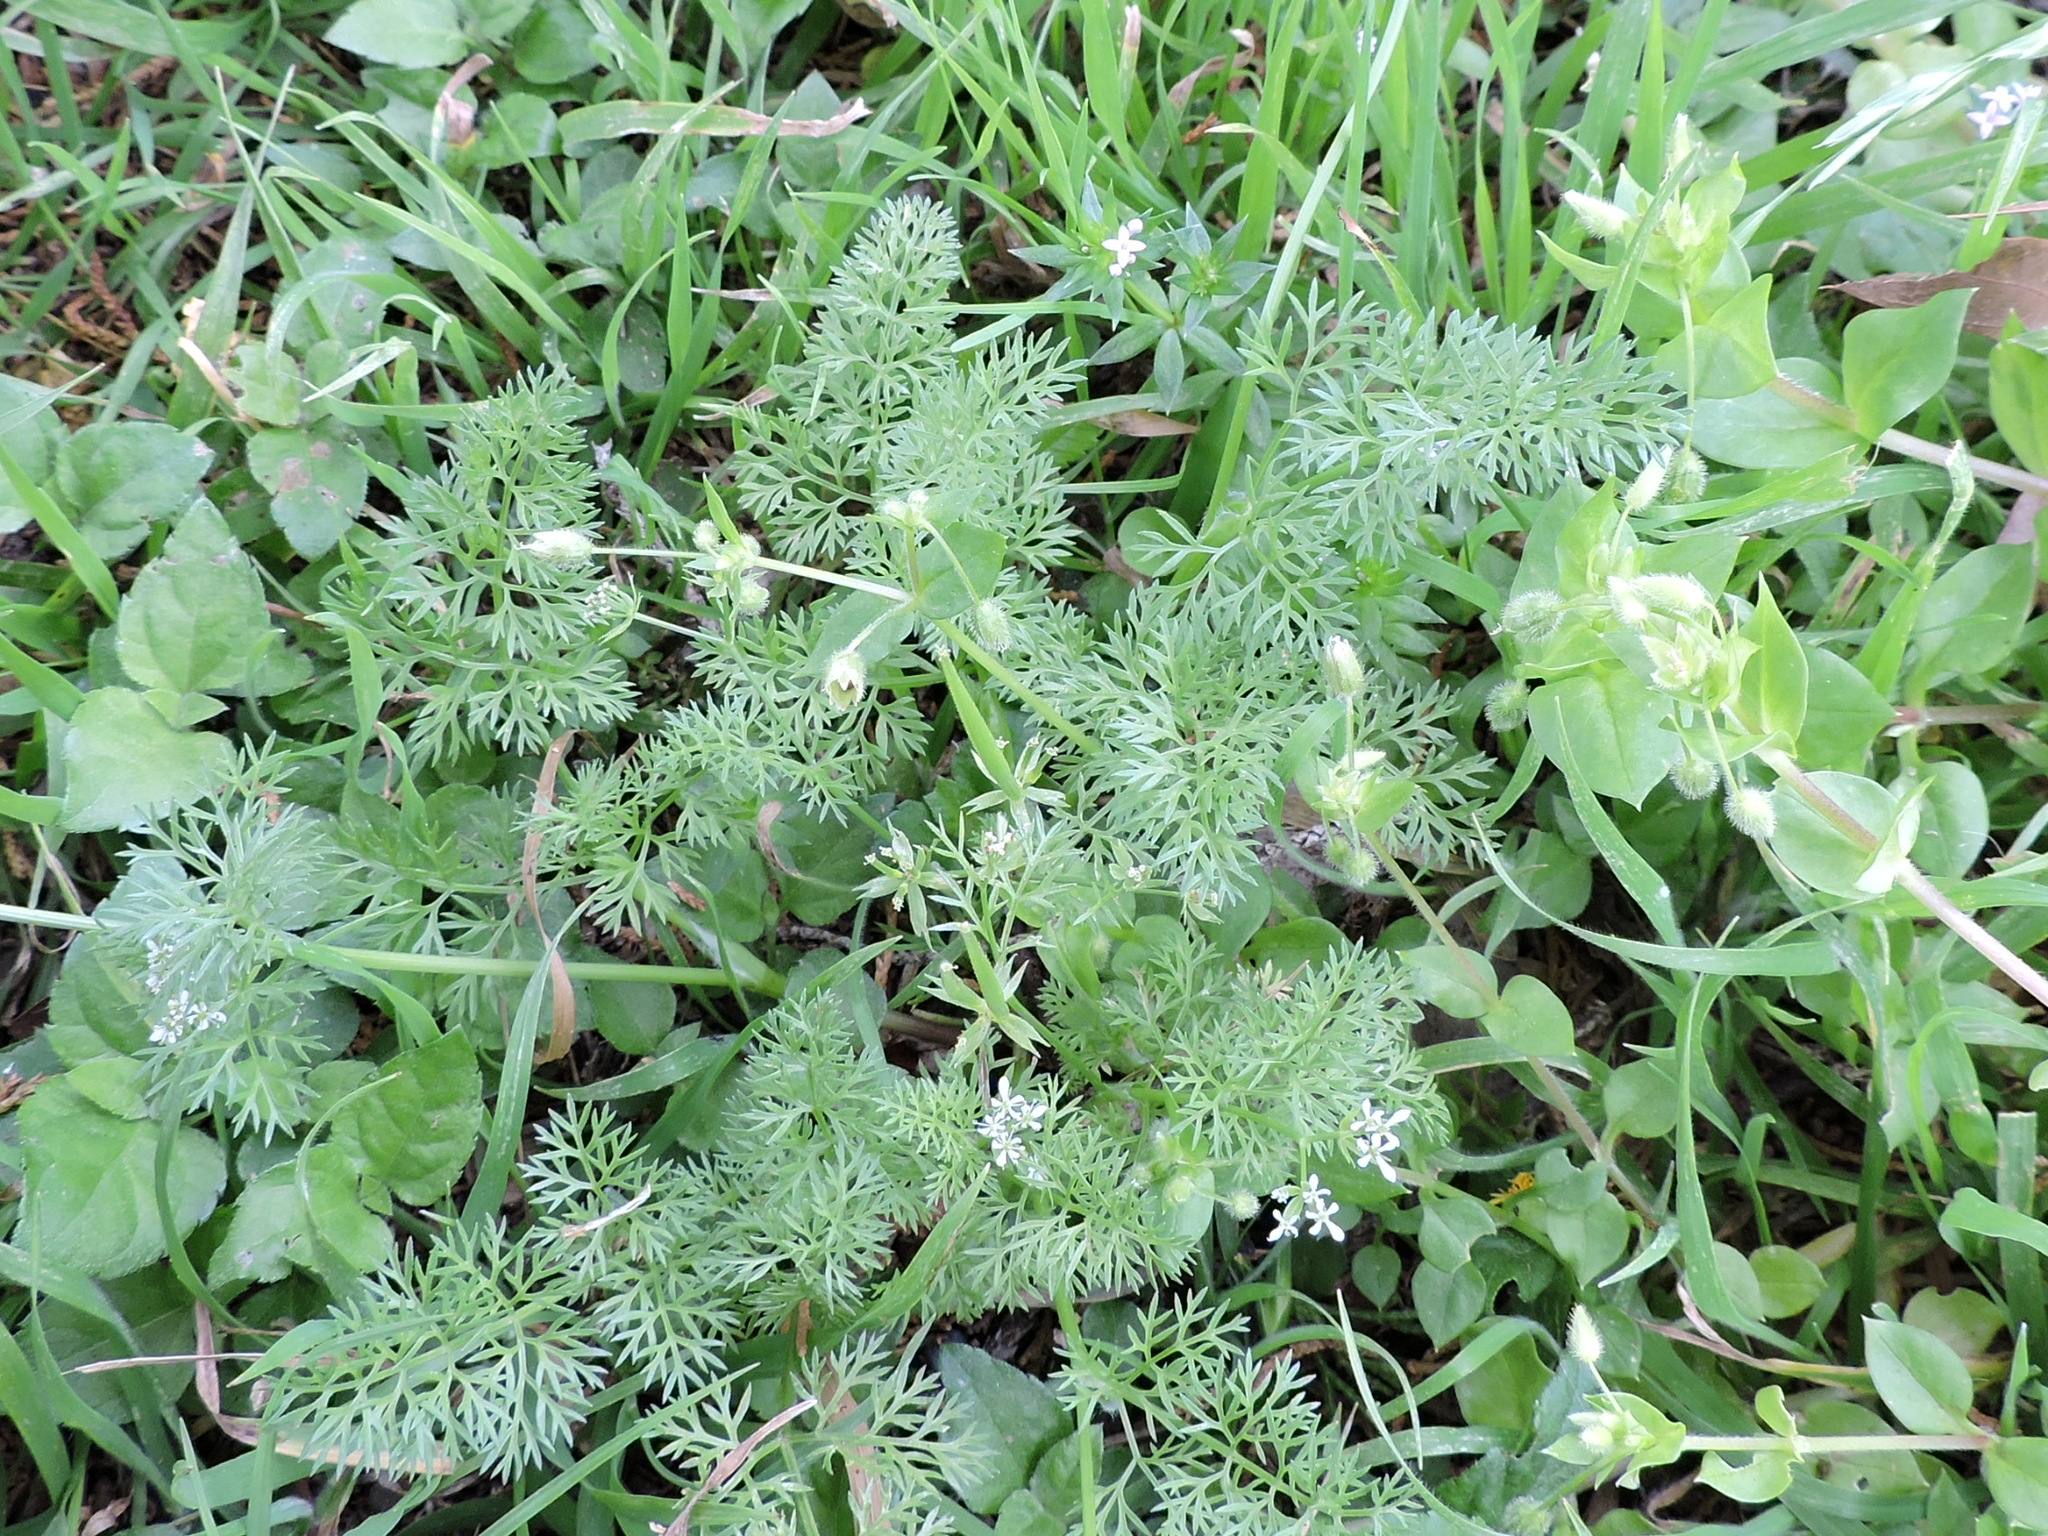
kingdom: Plantae
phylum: Tracheophyta
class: Magnoliopsida
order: Apiales
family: Apiaceae
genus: Scandix
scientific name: Scandix pecten-veneris
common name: Shepherd's-needle
